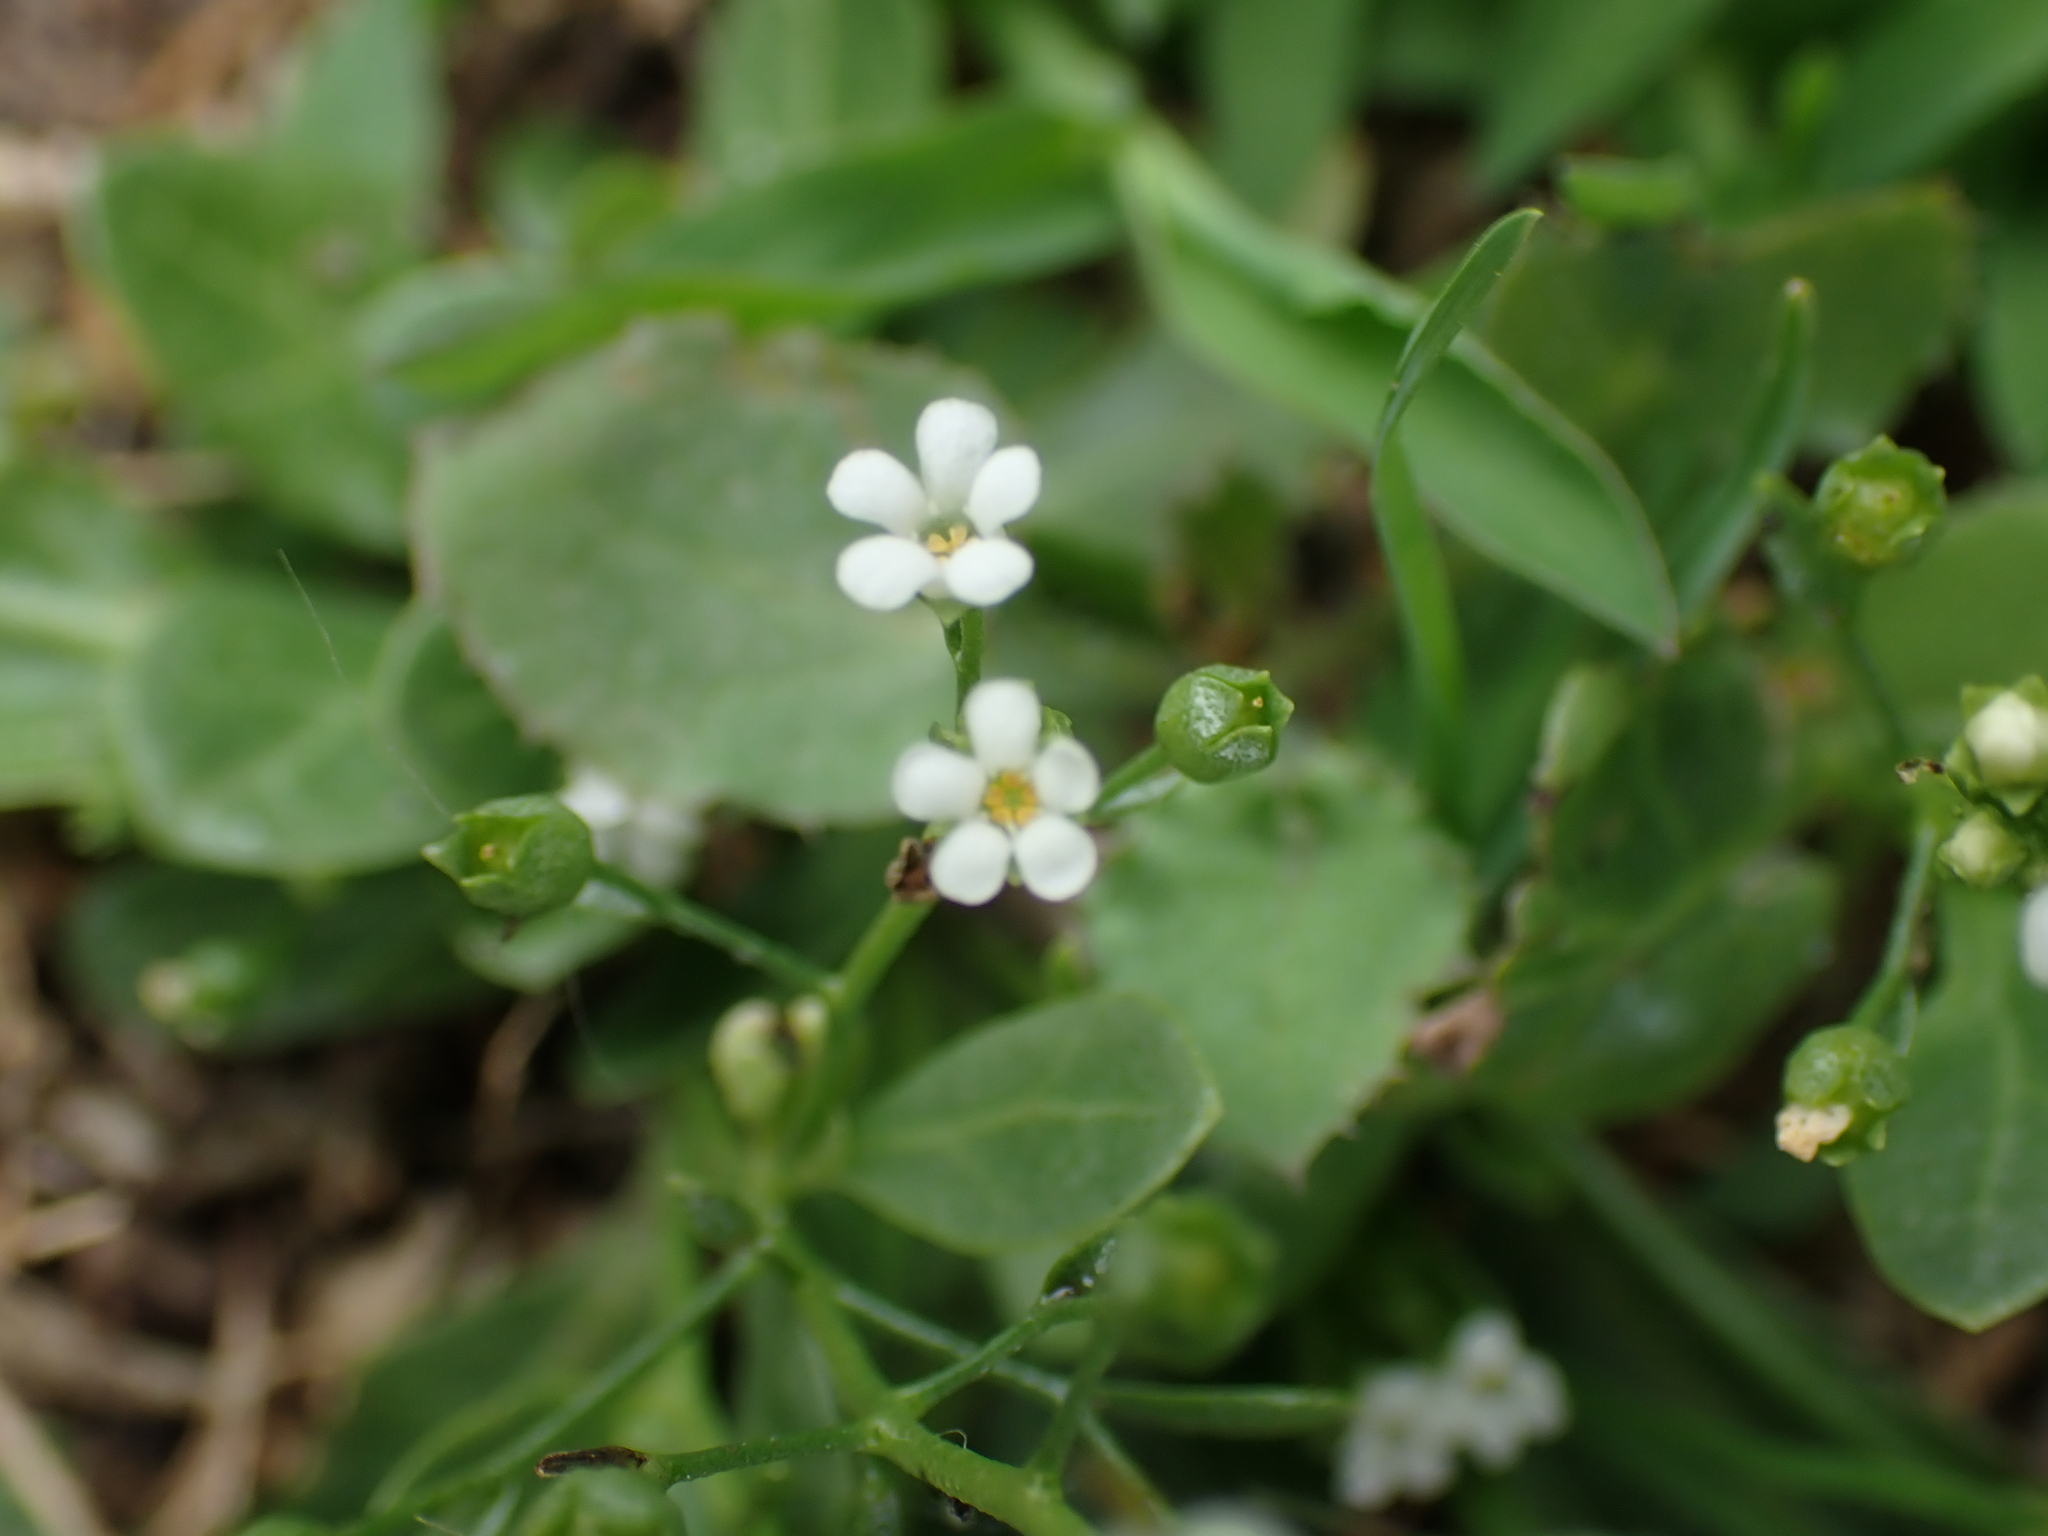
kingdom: Plantae
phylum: Tracheophyta
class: Magnoliopsida
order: Ericales
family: Primulaceae
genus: Samolus
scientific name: Samolus valerandi
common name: Brookweed
